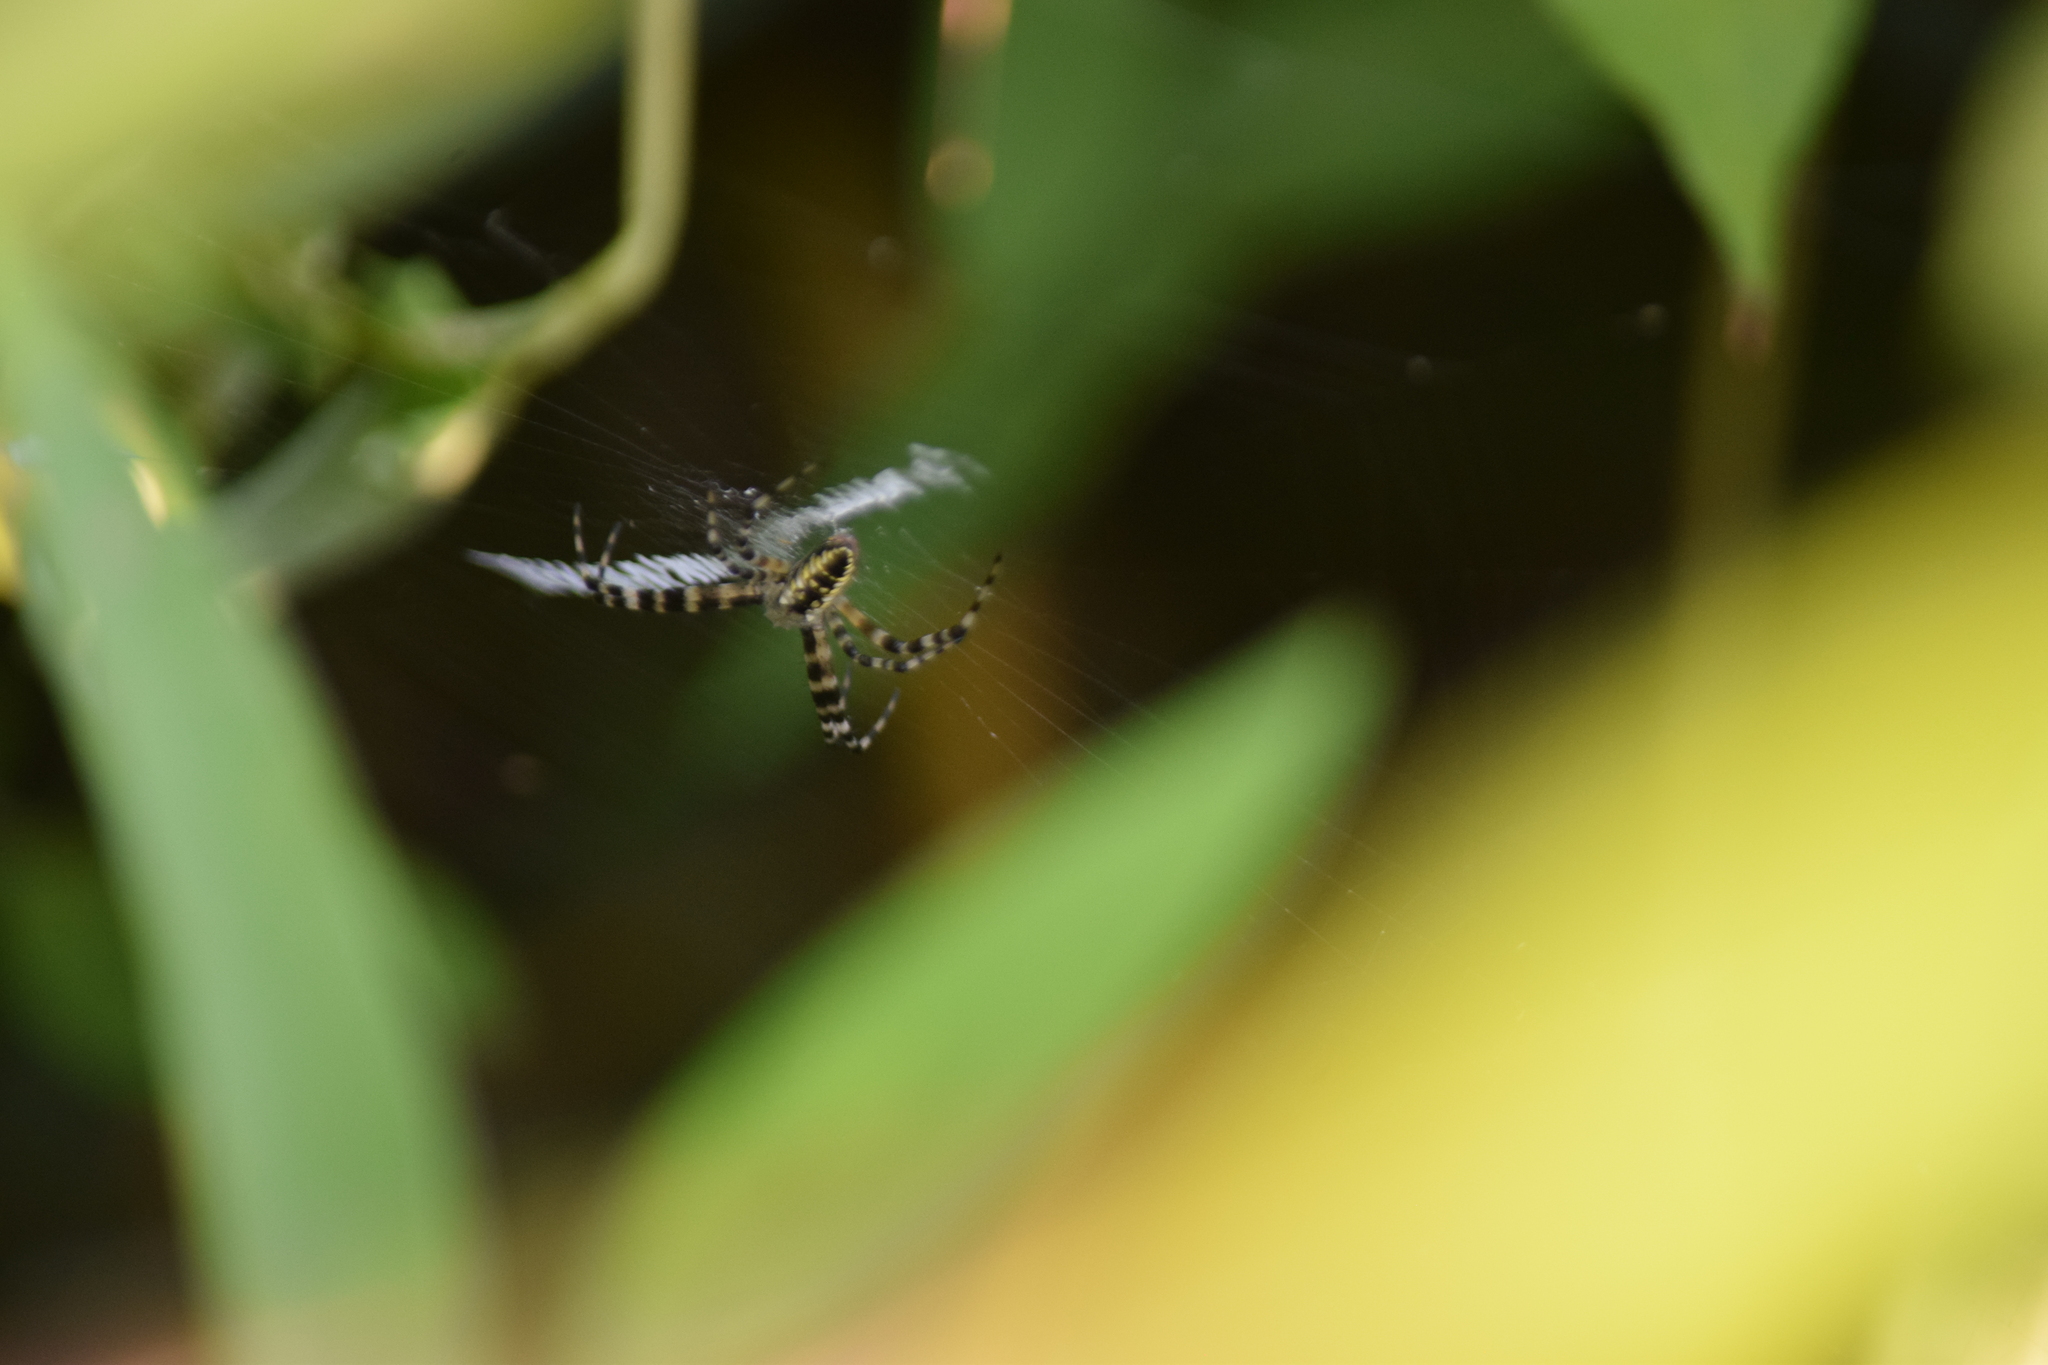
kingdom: Animalia
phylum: Arthropoda
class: Arachnida
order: Araneae
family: Araneidae
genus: Argiope
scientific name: Argiope aurantia
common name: Orb weavers
